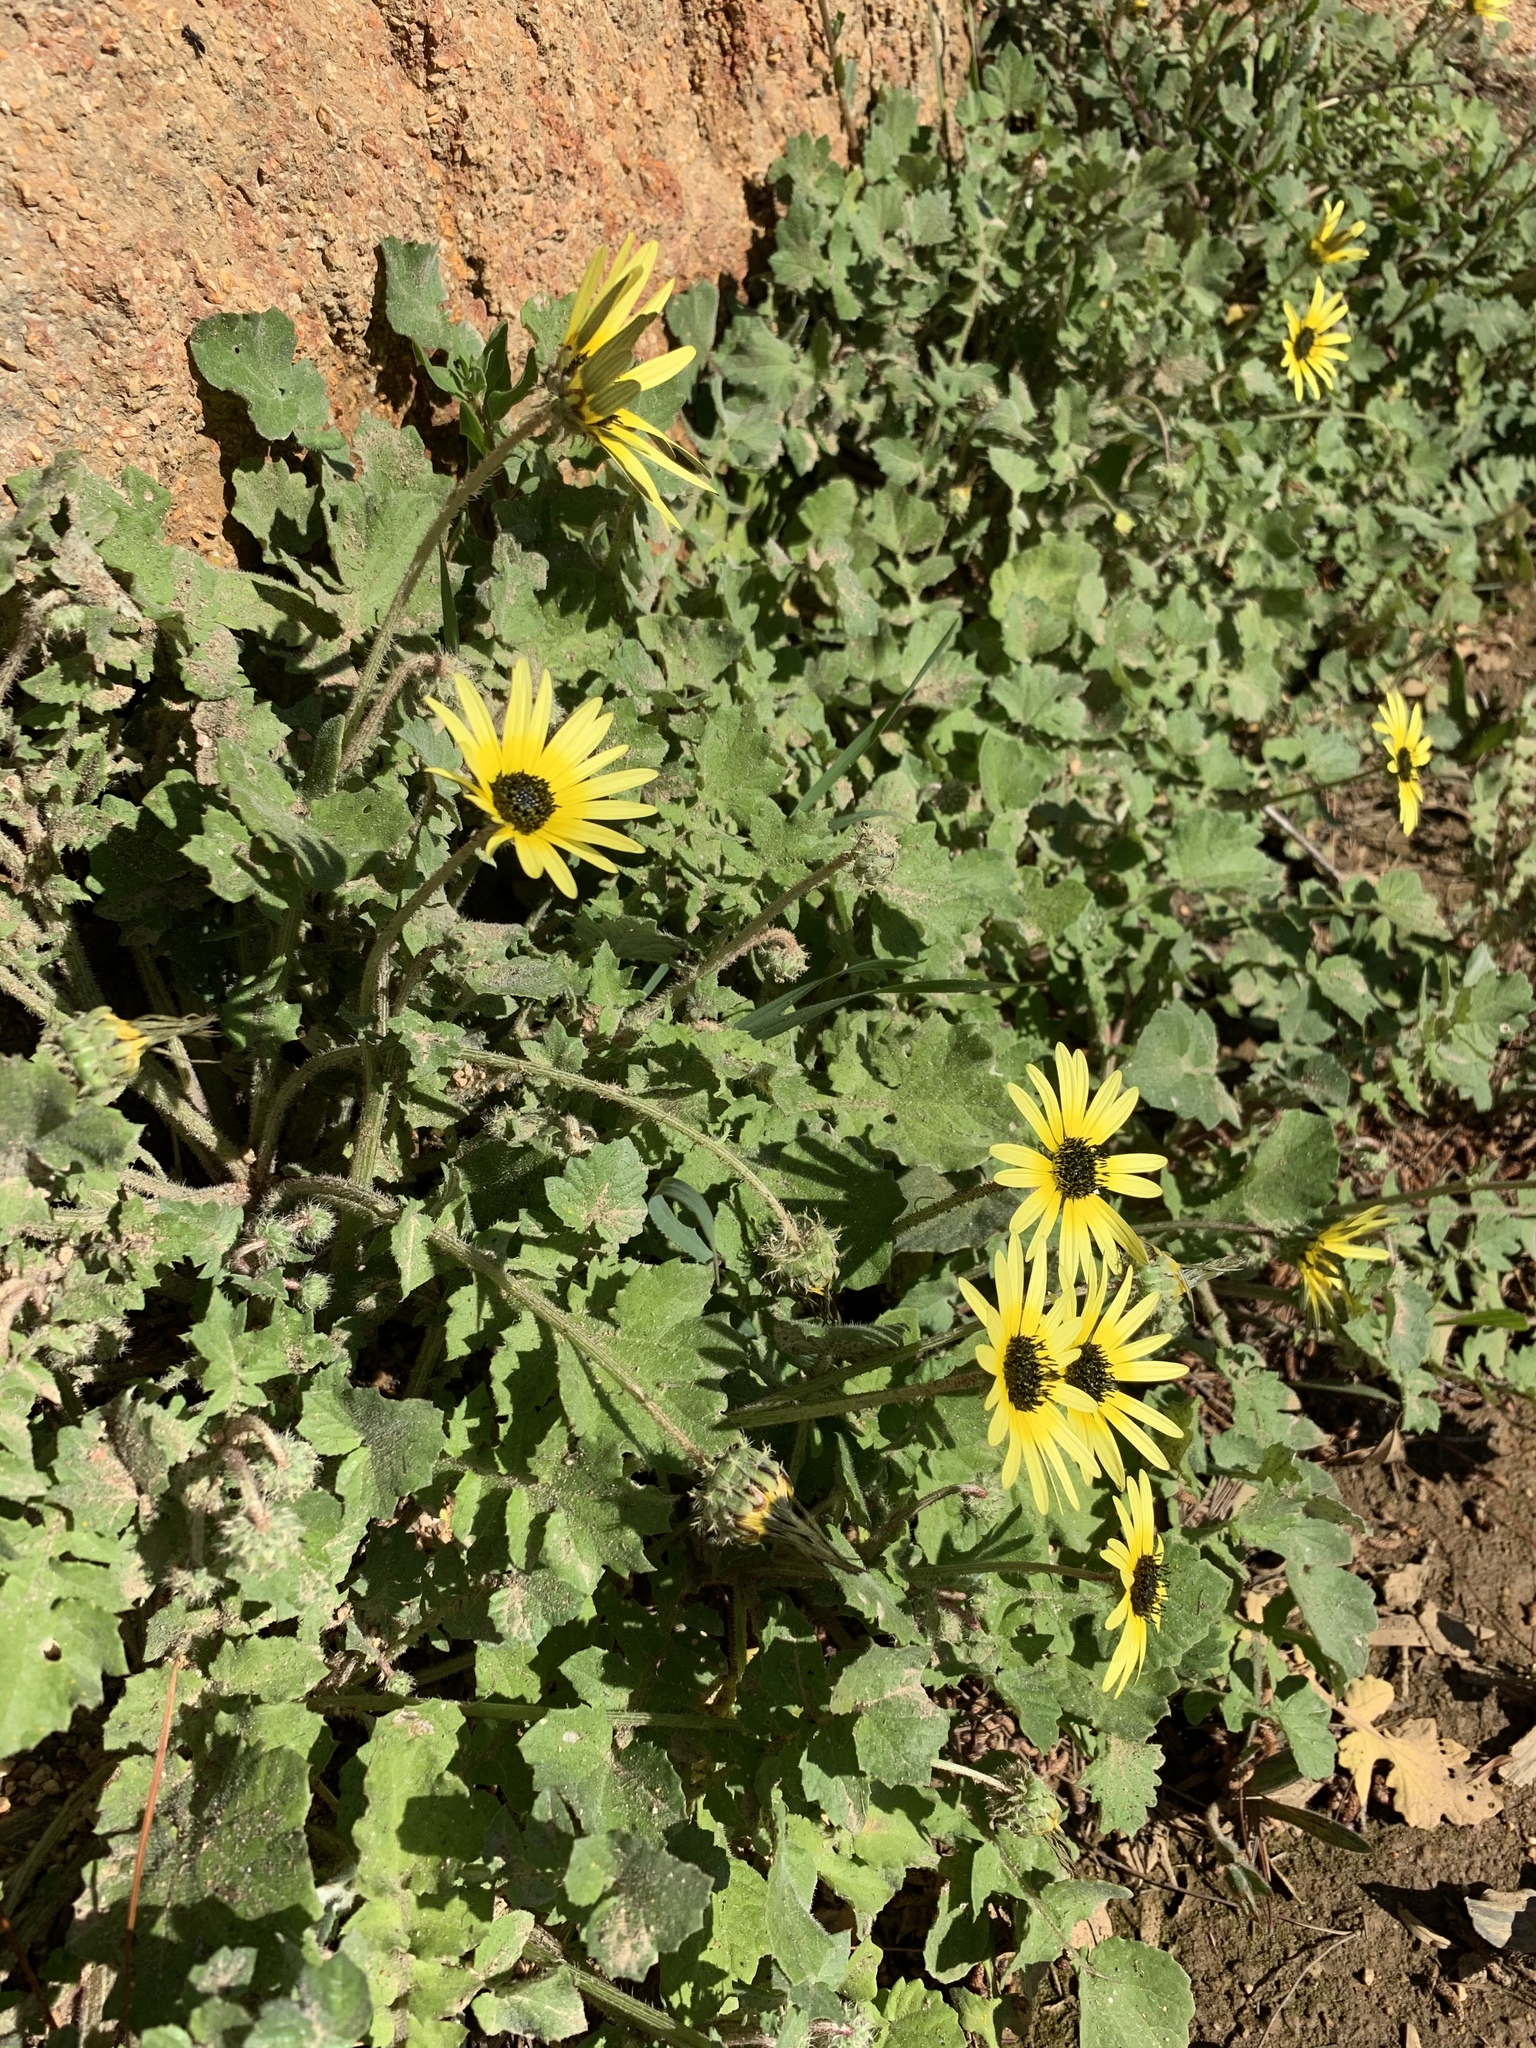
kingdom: Plantae
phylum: Tracheophyta
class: Magnoliopsida
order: Asterales
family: Asteraceae
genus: Arctotheca
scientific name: Arctotheca calendula
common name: Capeweed
